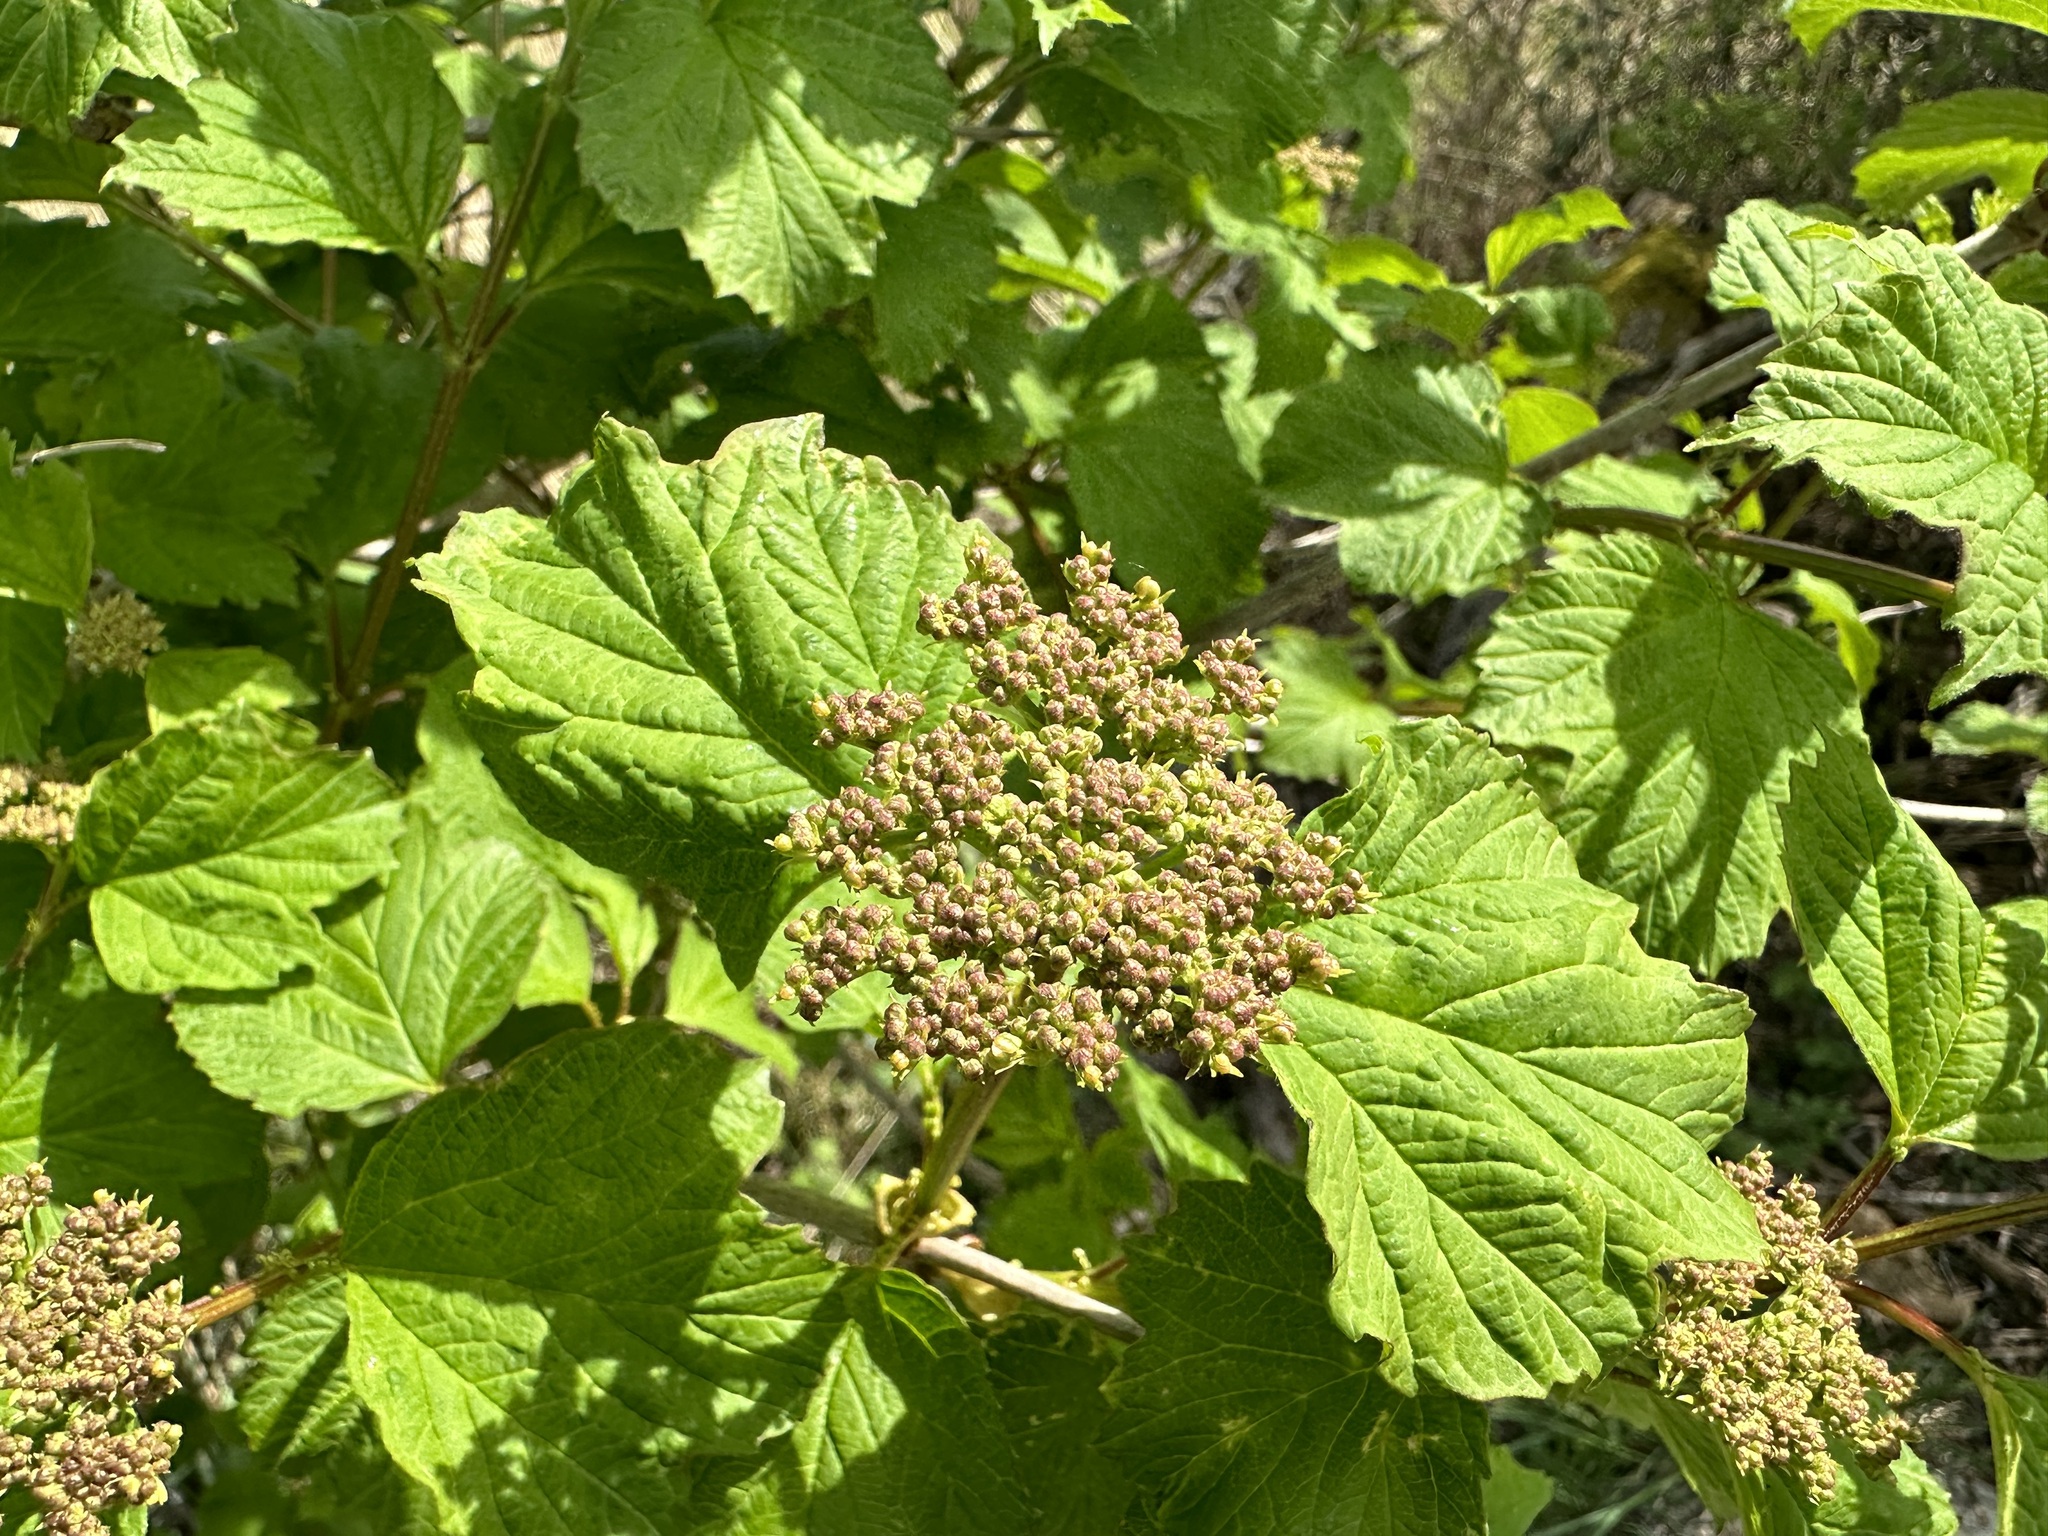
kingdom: Plantae
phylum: Tracheophyta
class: Magnoliopsida
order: Dipsacales
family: Viburnaceae
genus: Viburnum
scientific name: Viburnum opulus
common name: Guelder-rose
